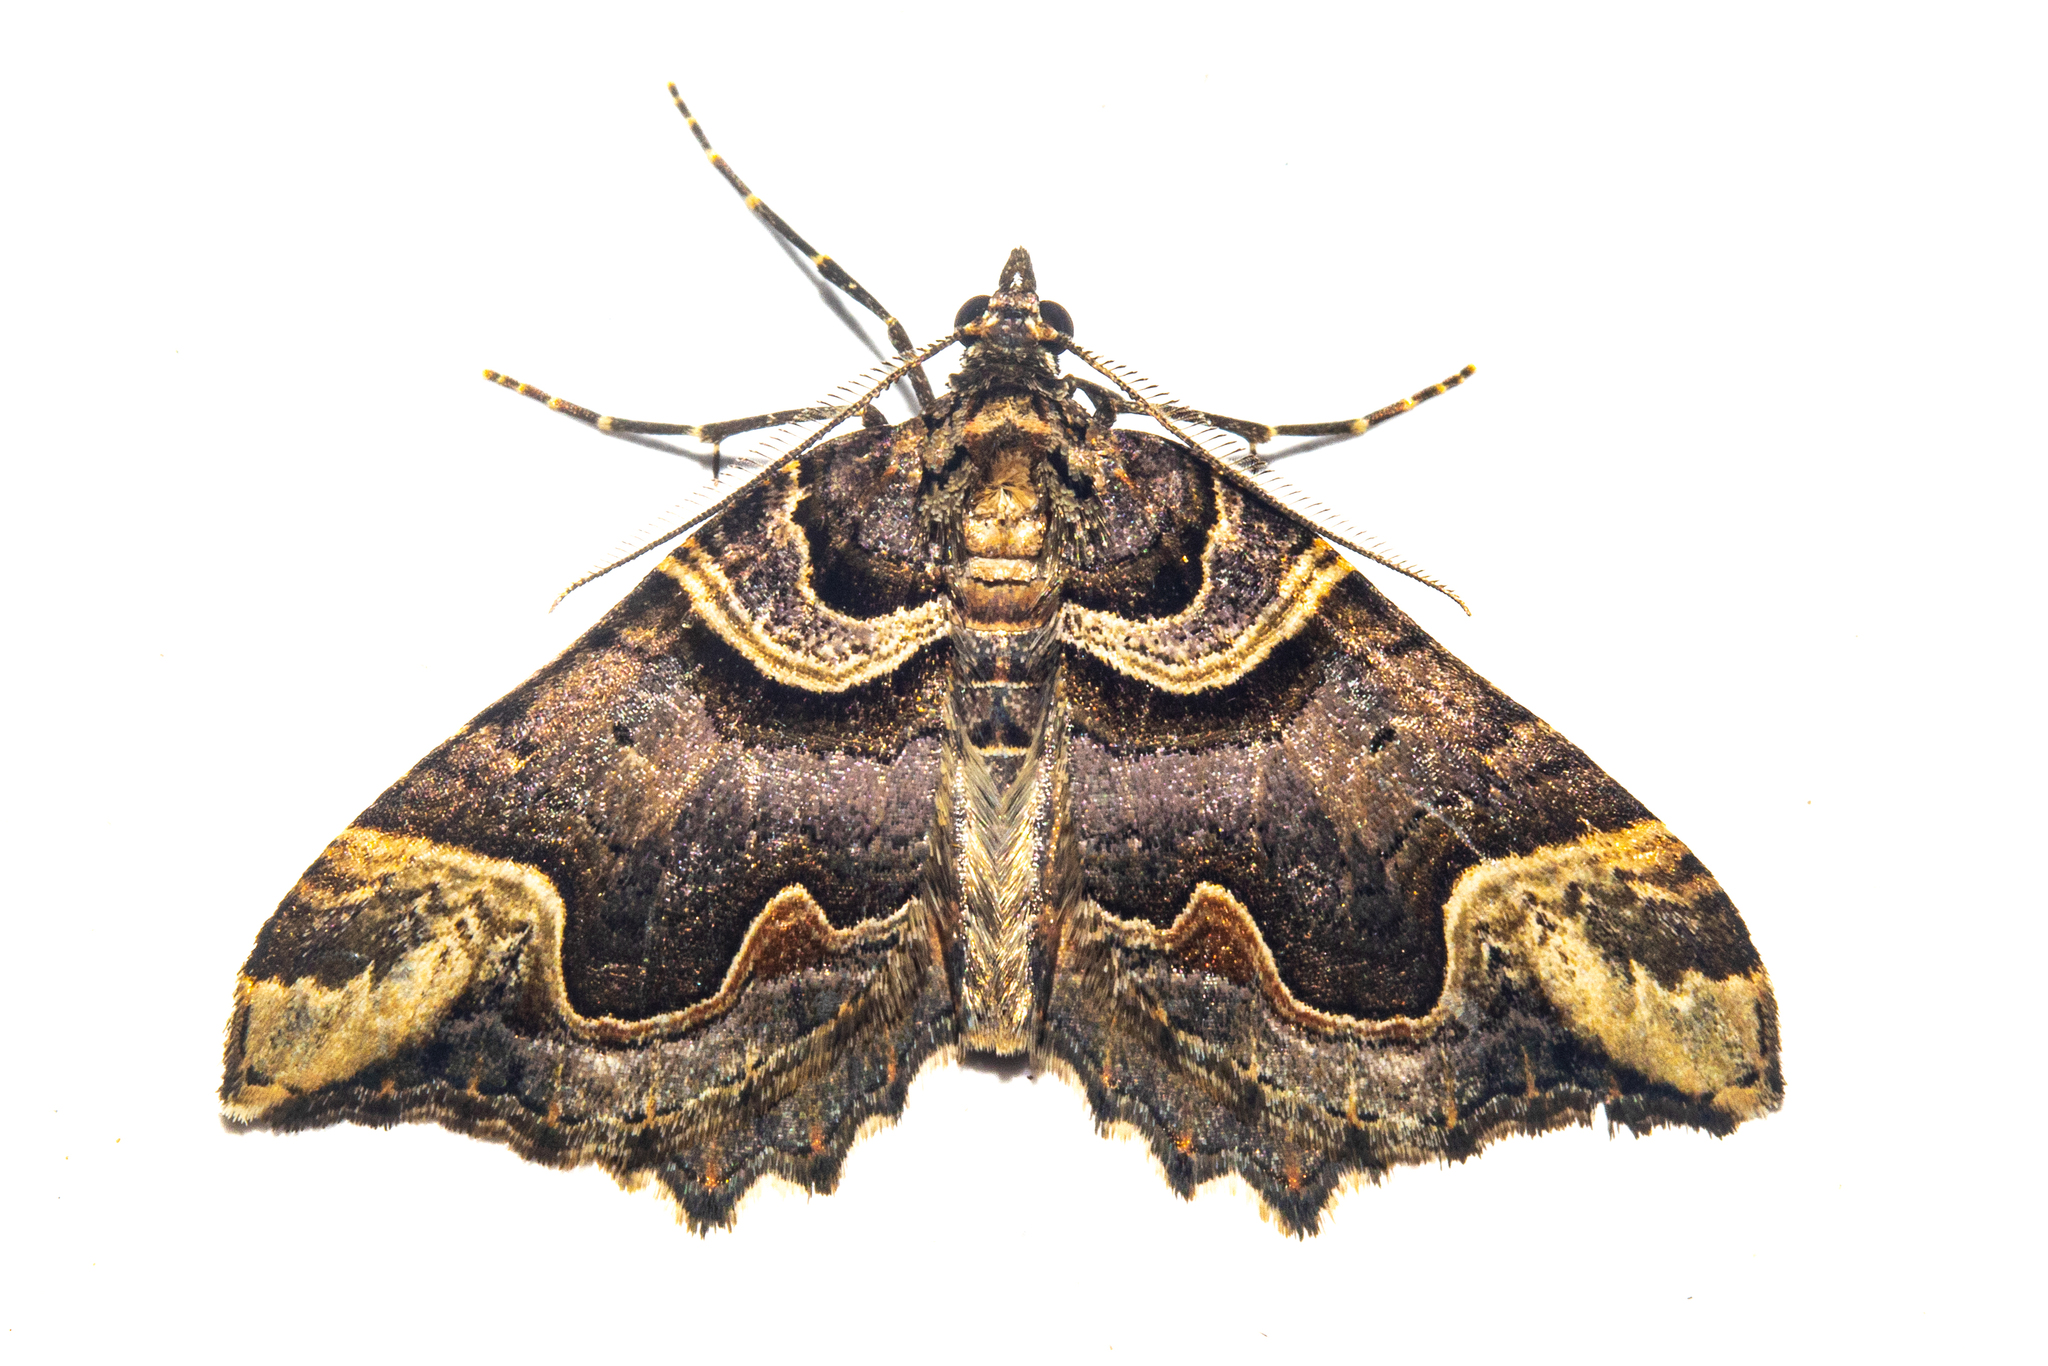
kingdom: Animalia
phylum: Arthropoda
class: Insecta
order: Lepidoptera
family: Geometridae
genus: Asaphodes
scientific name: Asaphodes chlamydota
